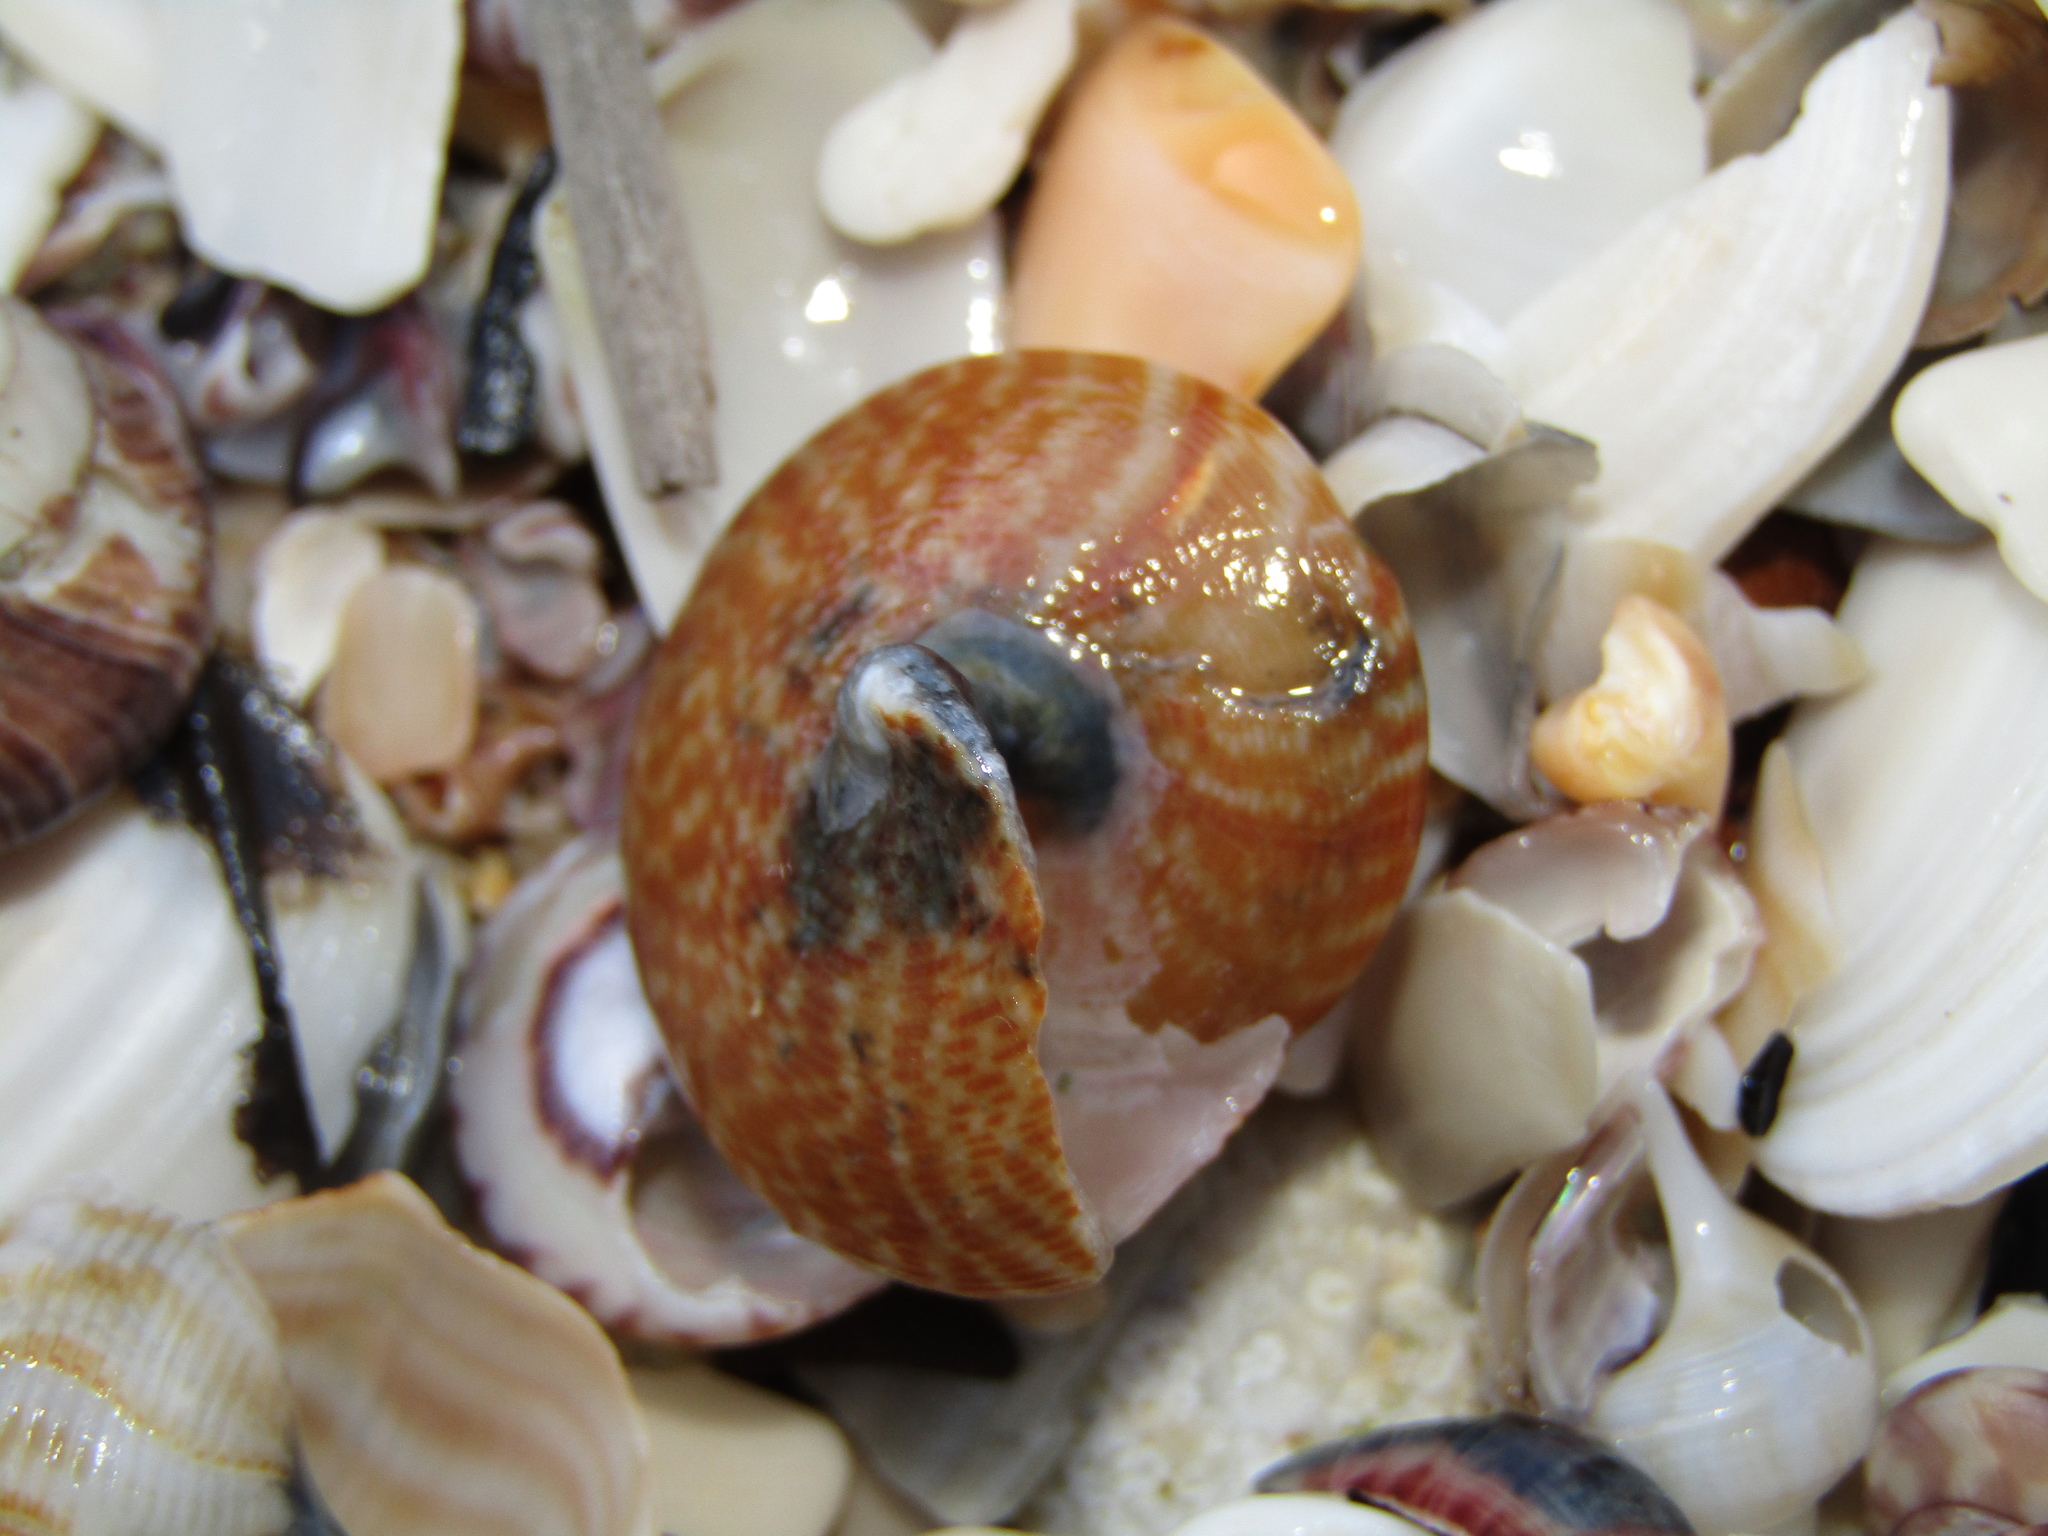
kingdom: Animalia
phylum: Mollusca
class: Gastropoda
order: Trochida
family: Calliostomatidae
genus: Maurea
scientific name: Maurea tigris
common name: Tiger maurea
